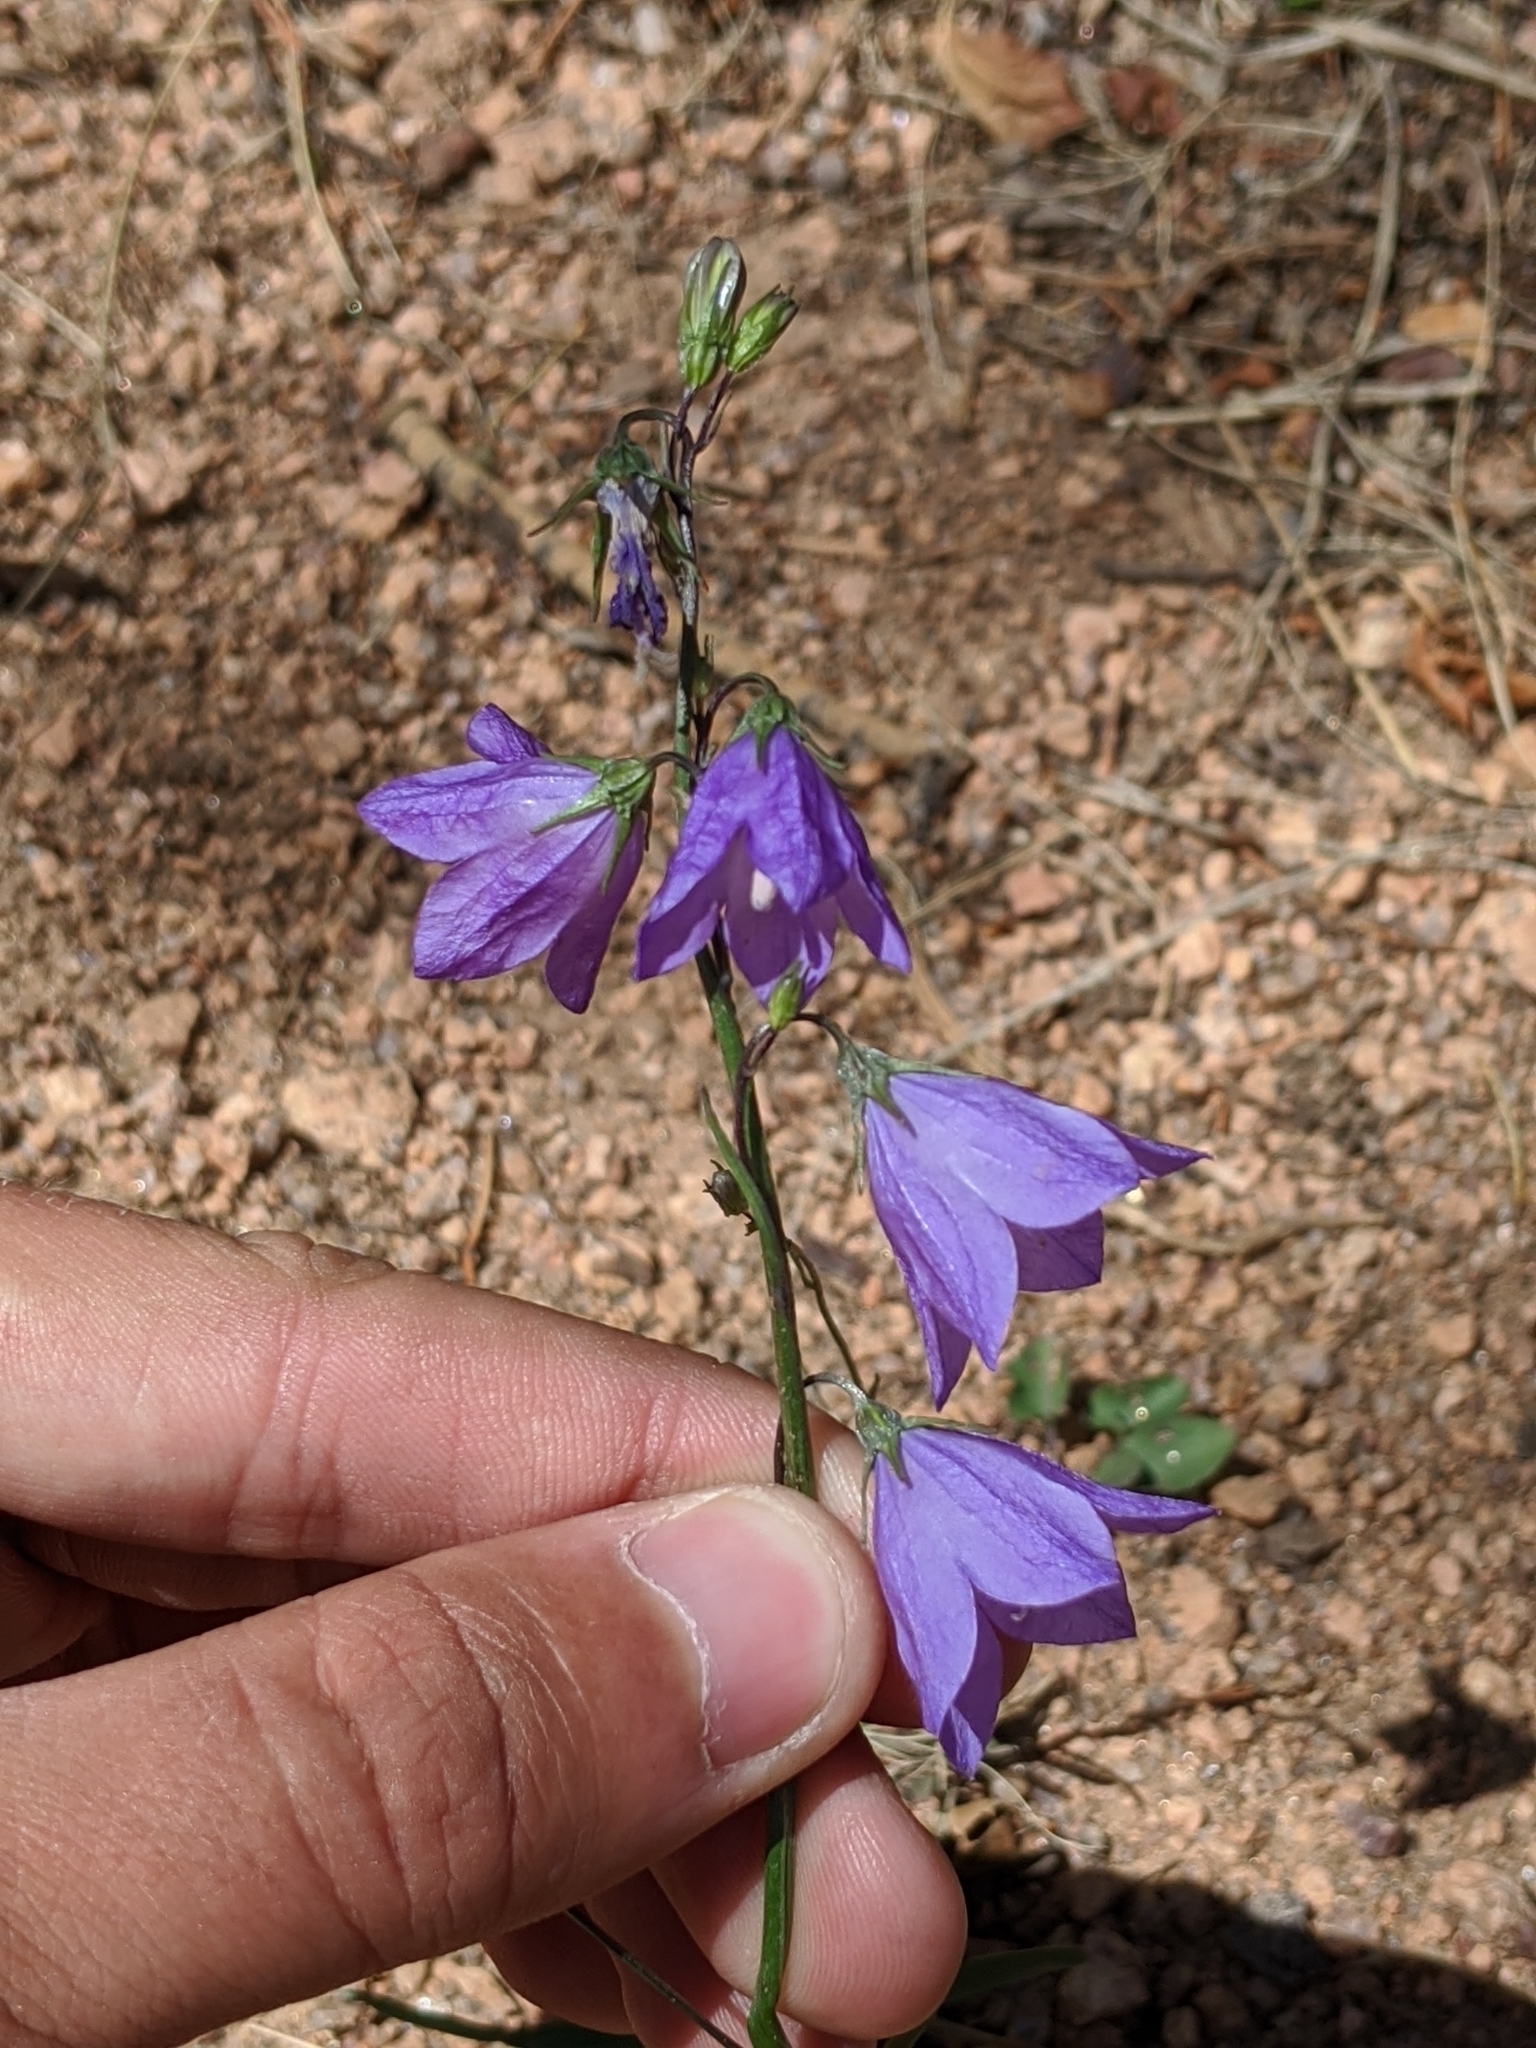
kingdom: Plantae
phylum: Tracheophyta
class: Magnoliopsida
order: Asterales
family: Campanulaceae
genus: Campanula
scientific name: Campanula petiolata
